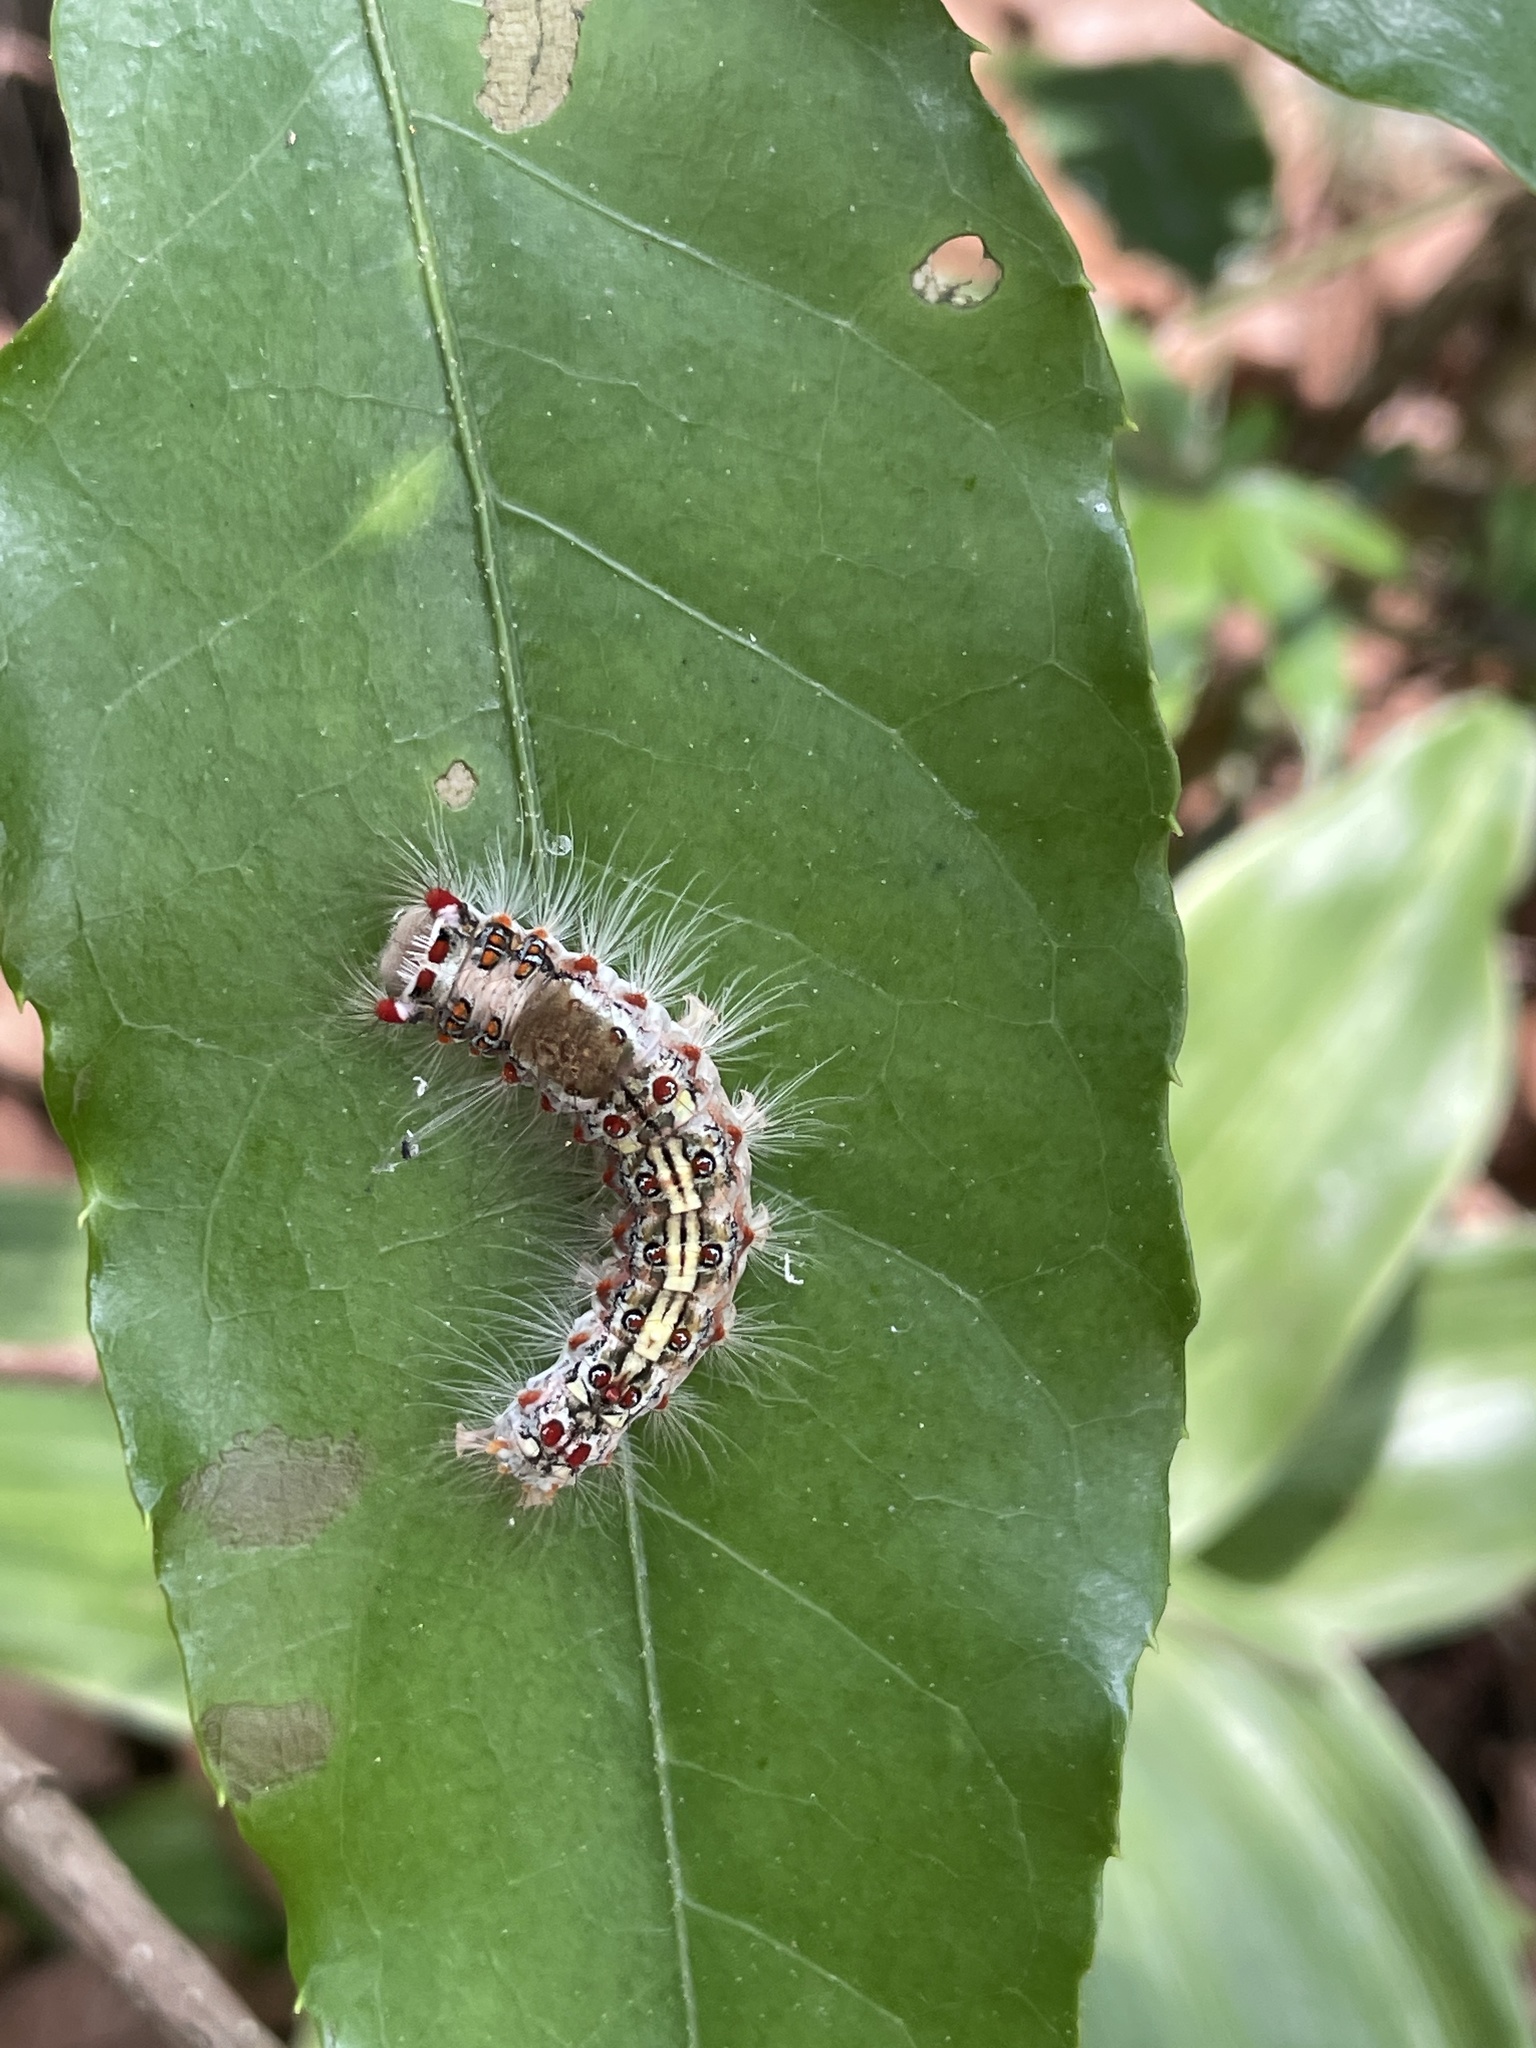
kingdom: Animalia
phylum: Arthropoda
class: Insecta
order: Lepidoptera
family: Erebidae
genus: Perina
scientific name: Perina nuda
